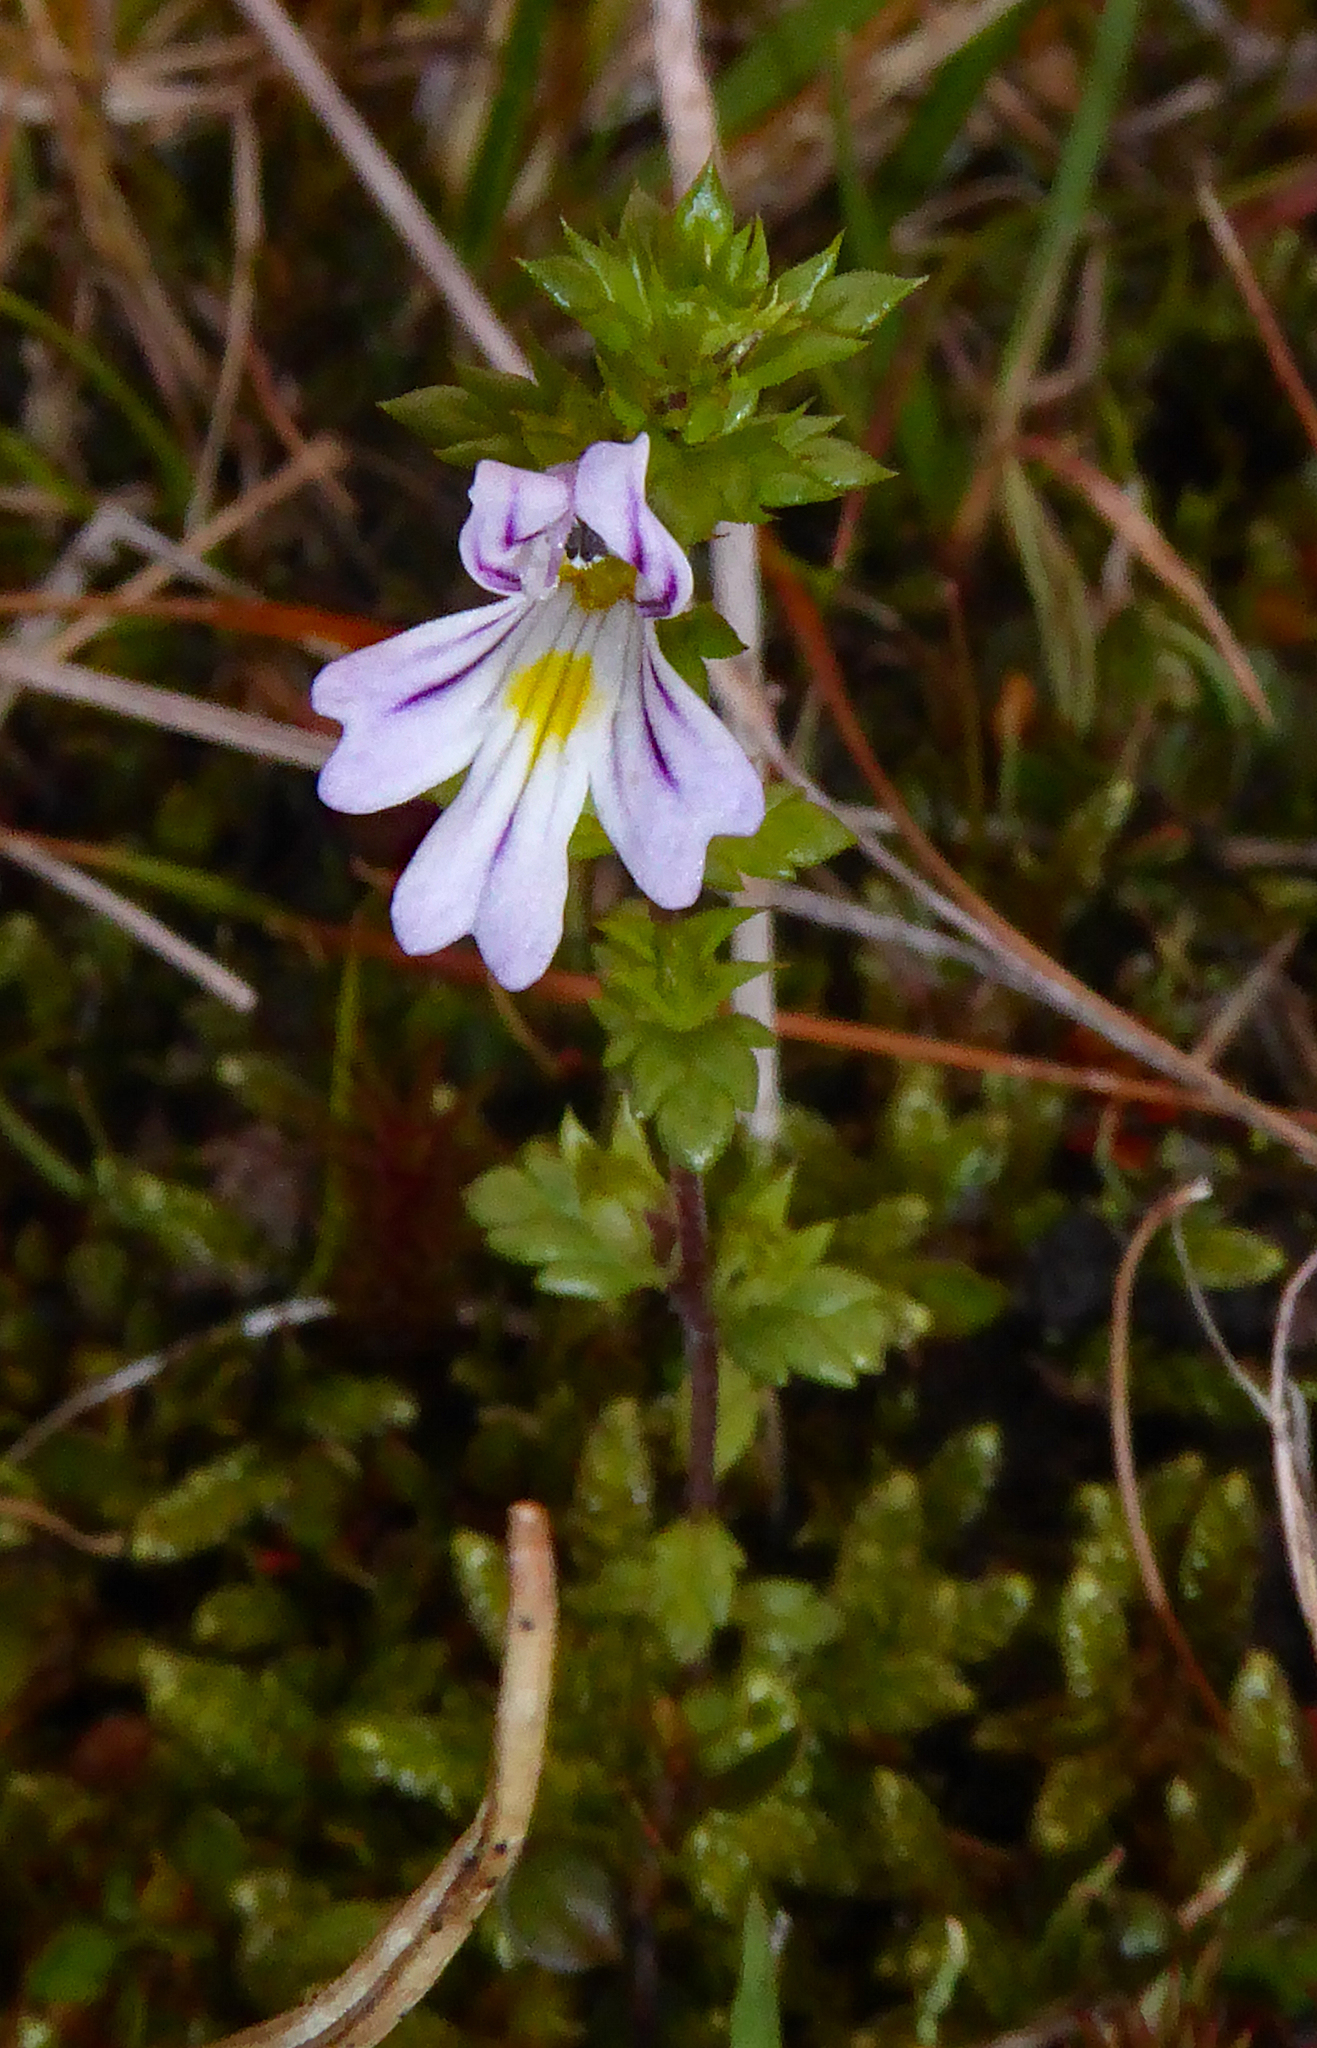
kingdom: Plantae
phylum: Tracheophyta
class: Magnoliopsida
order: Lamiales
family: Orobanchaceae
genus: Euphrasia
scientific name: Euphrasia nemorosa
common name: Common eyebright
